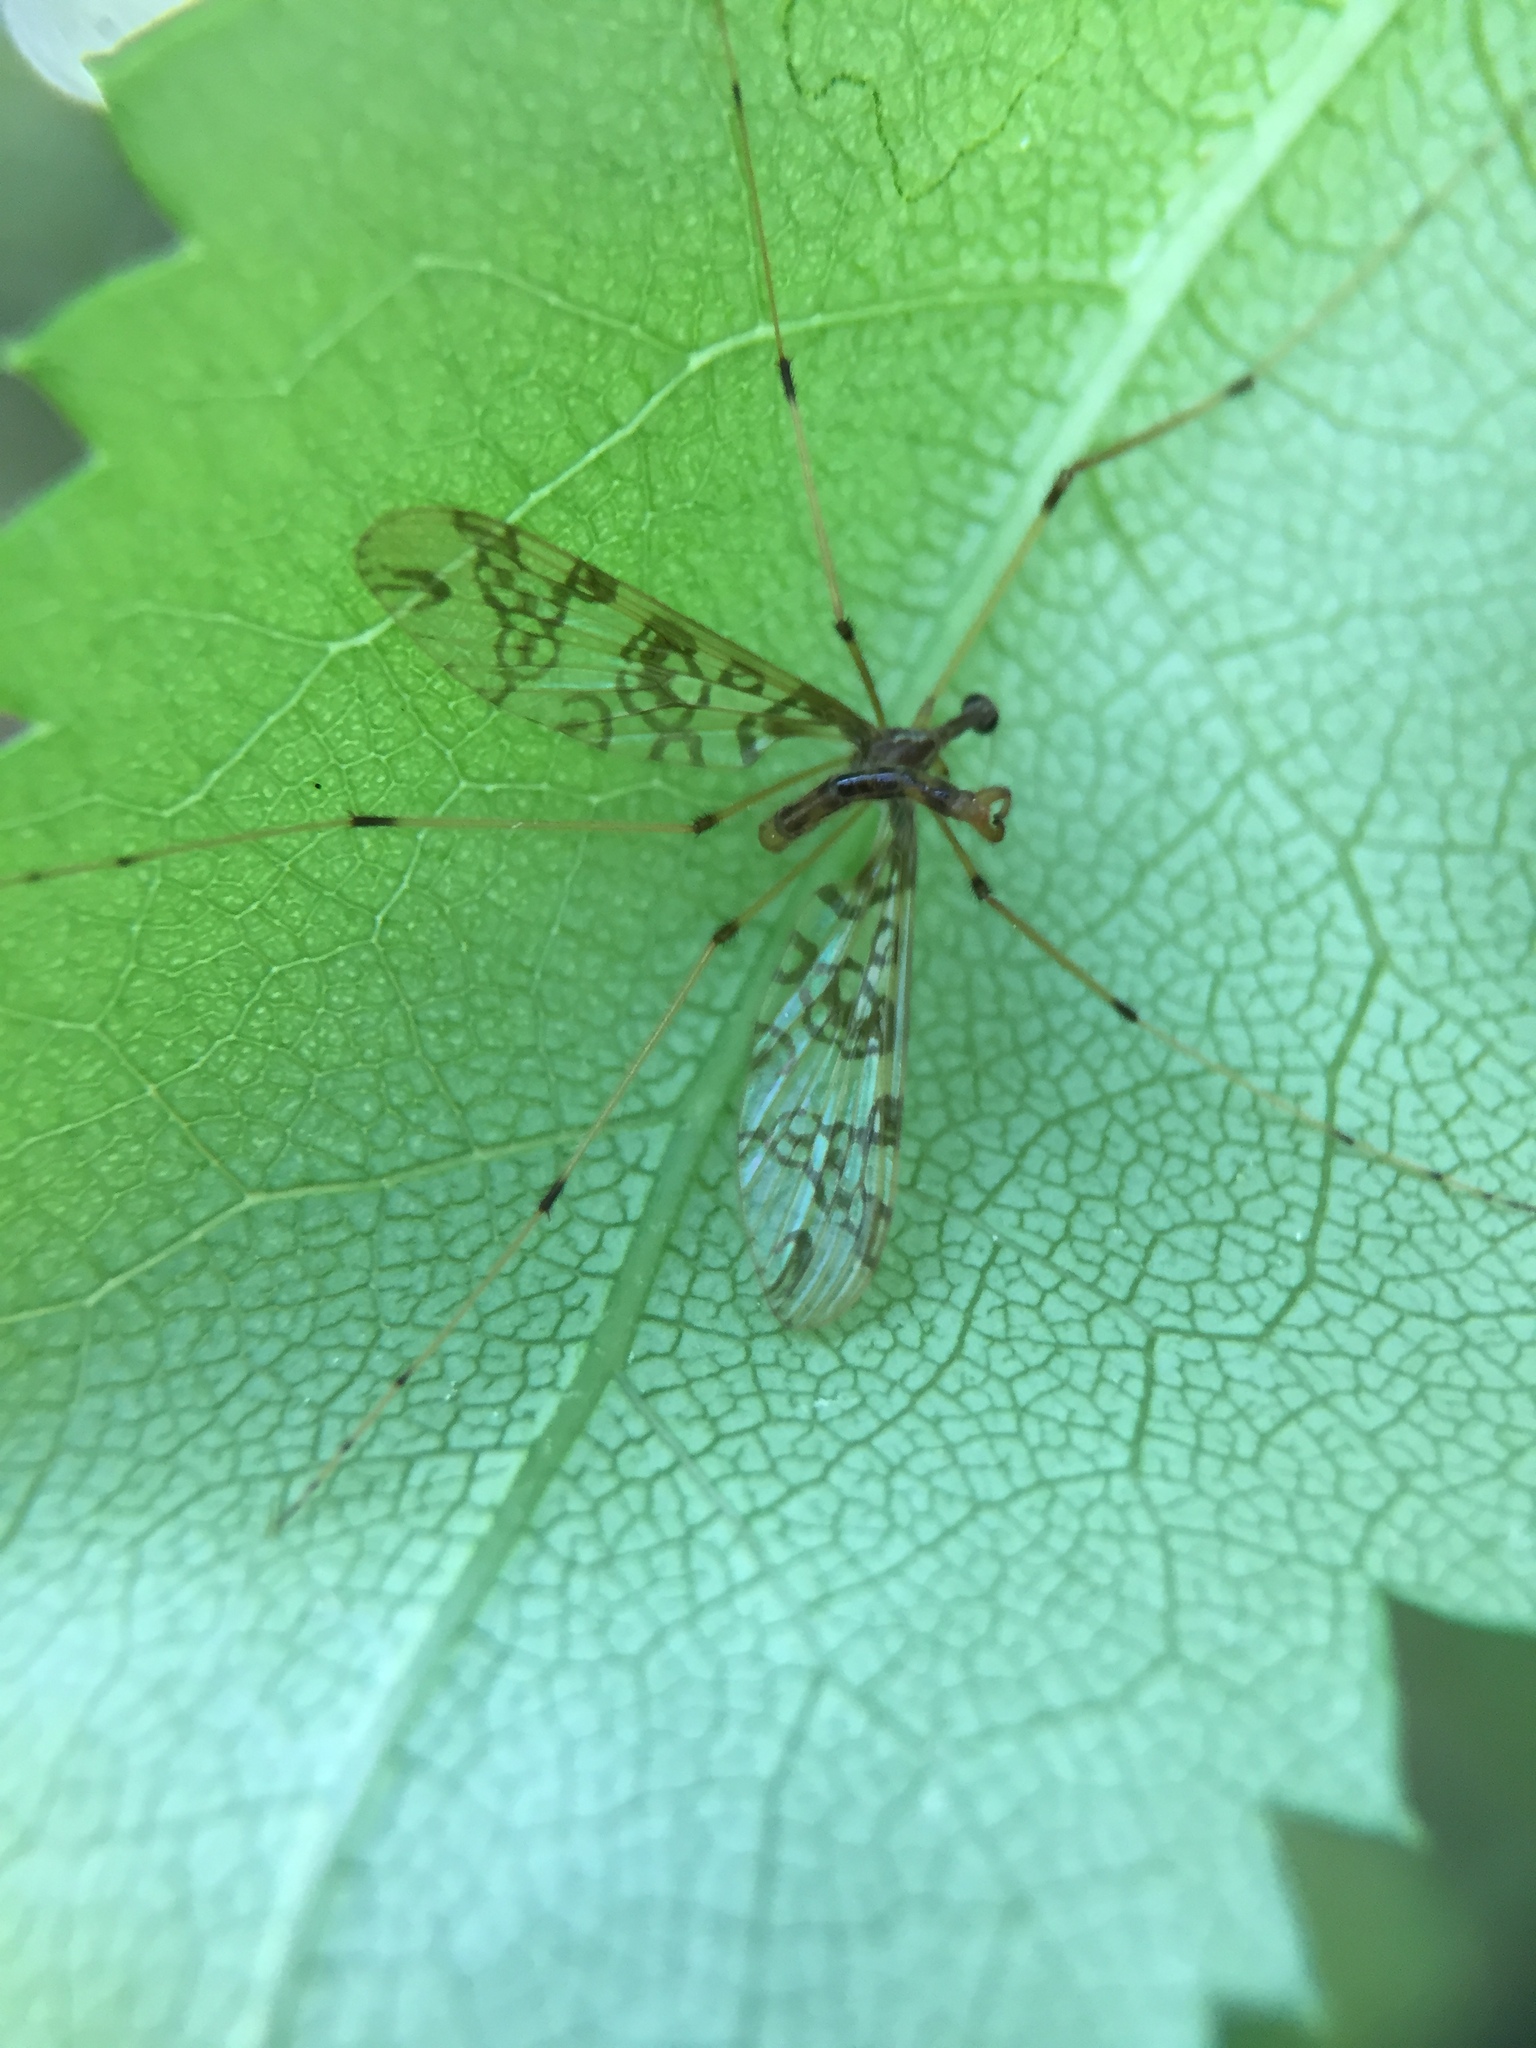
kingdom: Animalia
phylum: Arthropoda
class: Insecta
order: Diptera
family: Tanyderidae
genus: Tanyderus
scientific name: Tanyderus annuliferus
